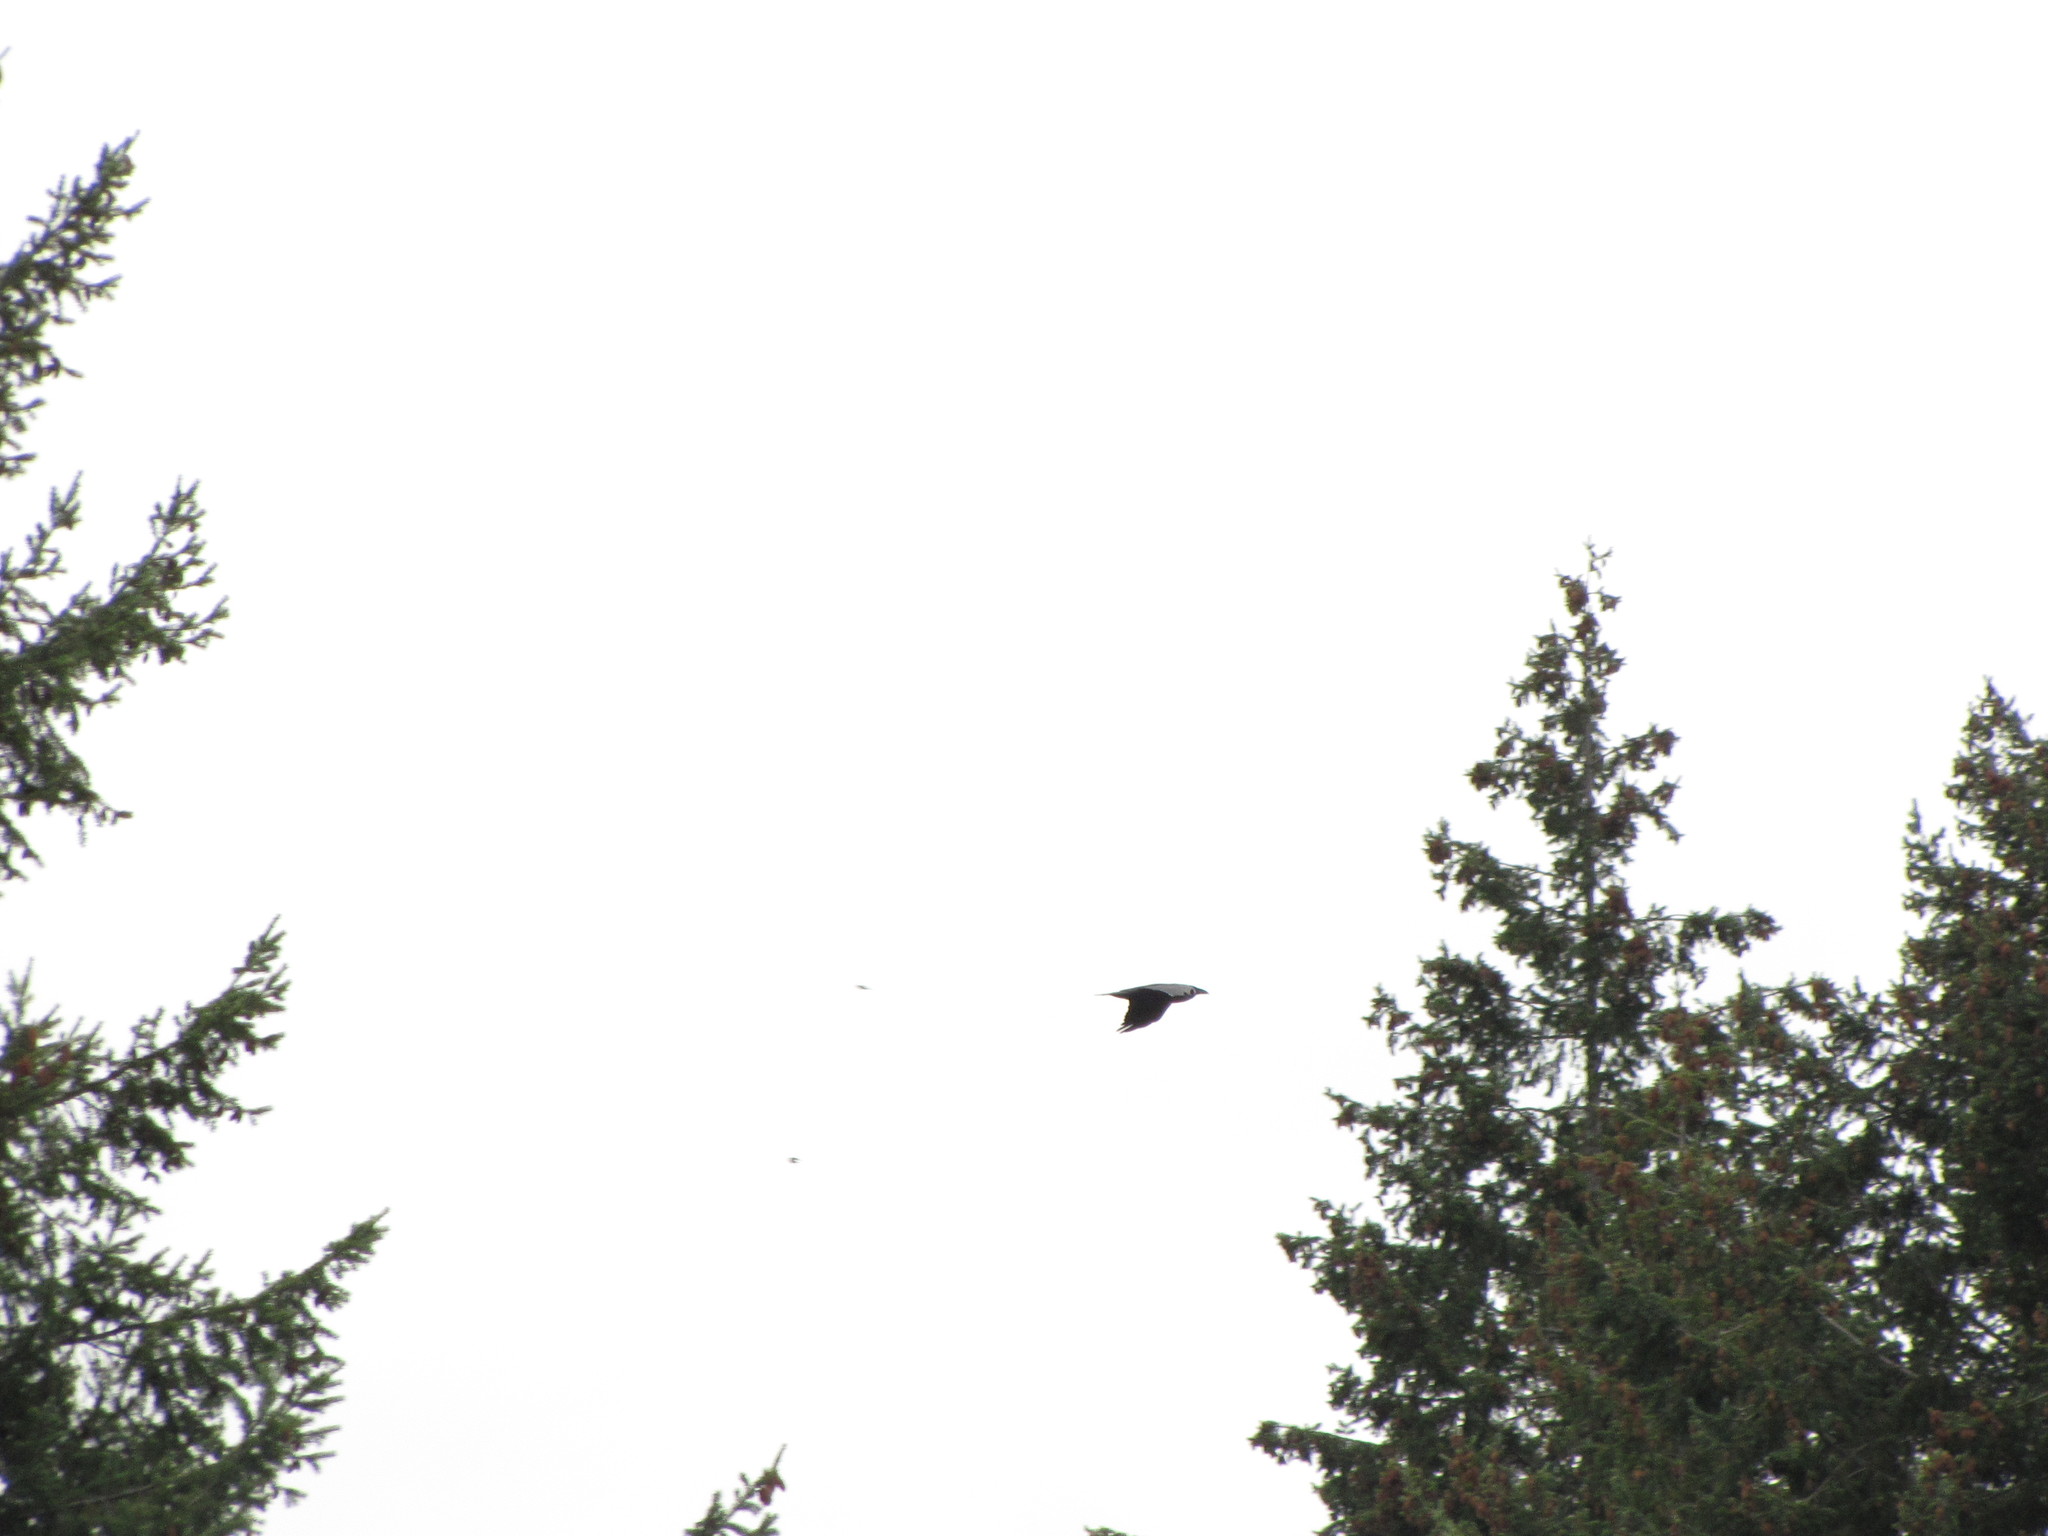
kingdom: Animalia
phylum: Chordata
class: Aves
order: Passeriformes
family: Corvidae
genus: Corvus
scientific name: Corvus corax
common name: Common raven
